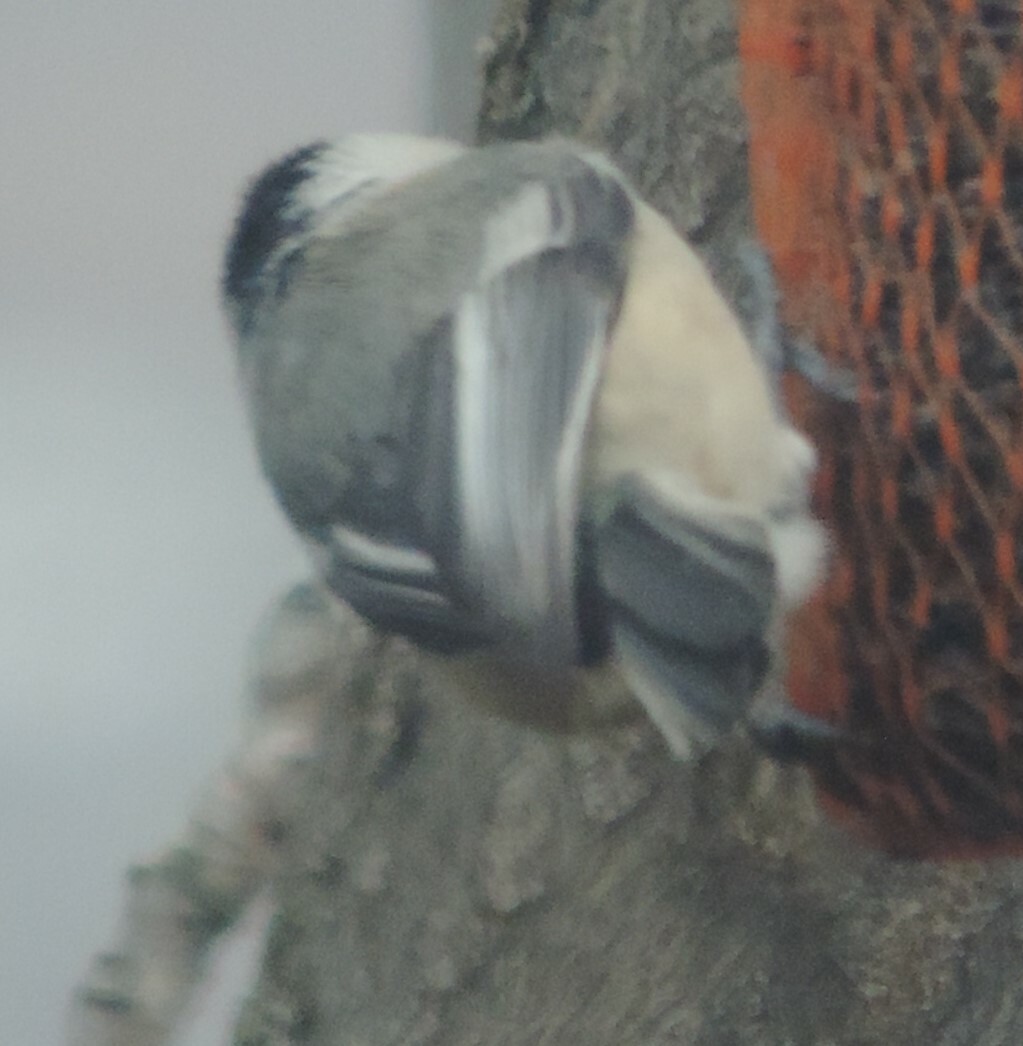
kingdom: Animalia
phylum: Chordata
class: Aves
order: Passeriformes
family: Paridae
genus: Poecile
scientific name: Poecile atricapillus
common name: Black-capped chickadee
